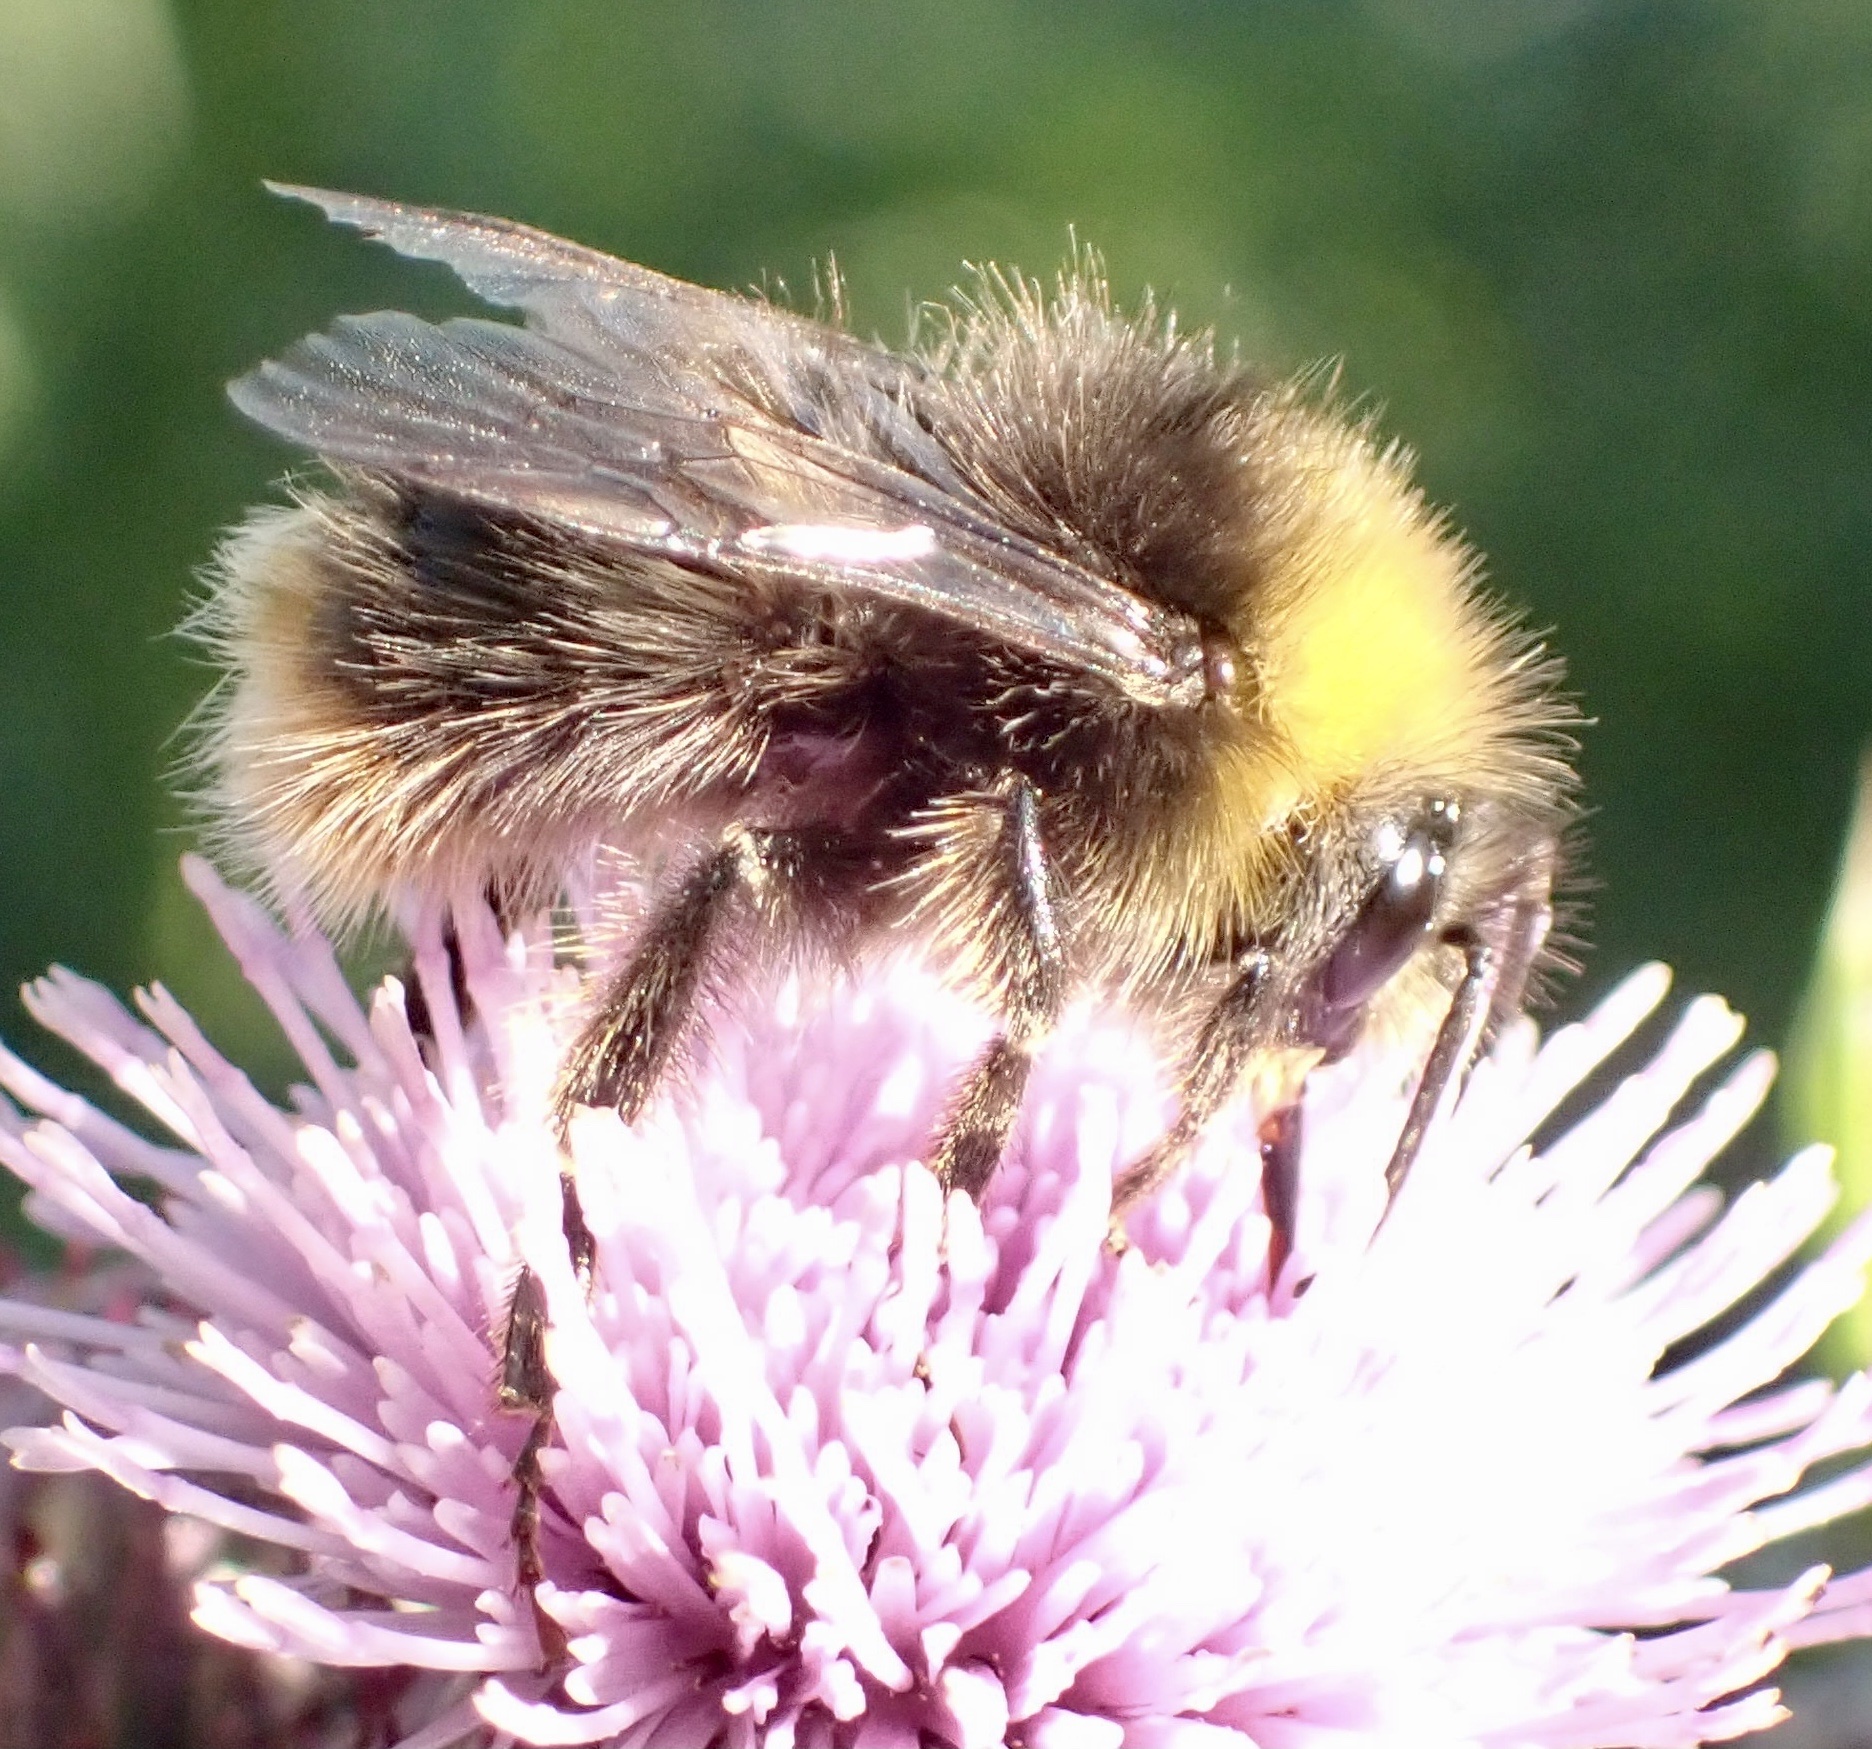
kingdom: Animalia
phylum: Arthropoda
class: Insecta
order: Hymenoptera
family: Apidae
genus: Bombus
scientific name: Bombus pratorum
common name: Early humble-bee
